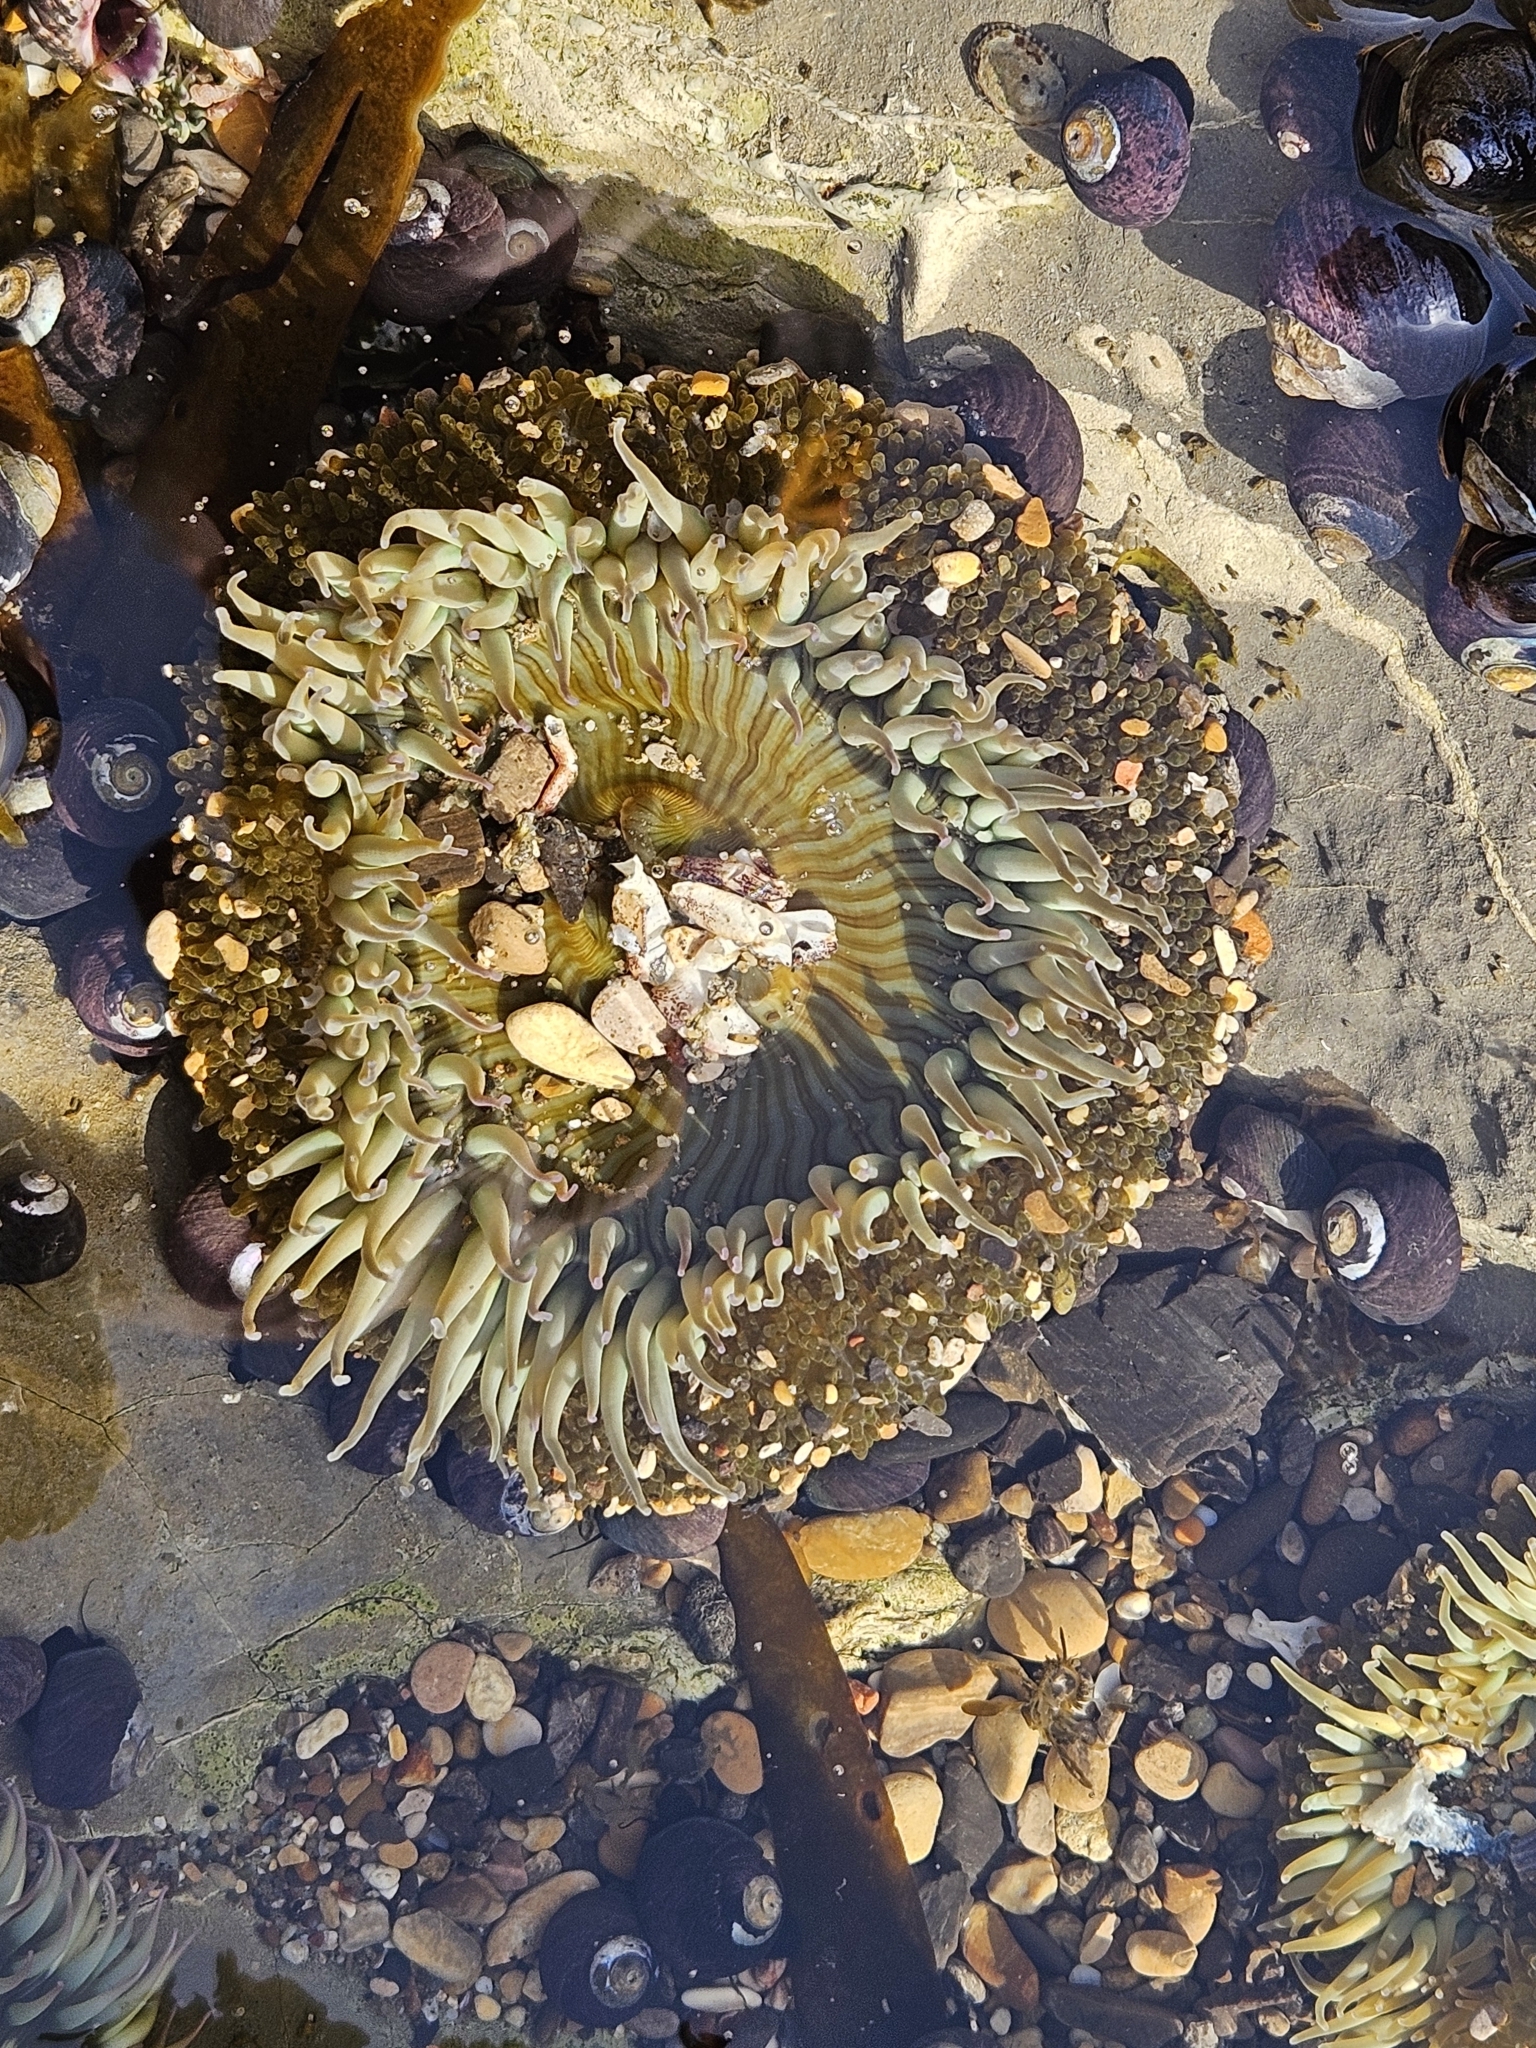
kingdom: Animalia
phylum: Cnidaria
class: Anthozoa
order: Actiniaria
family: Actiniidae
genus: Anthopleura
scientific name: Anthopleura sola
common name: Sun anemone
